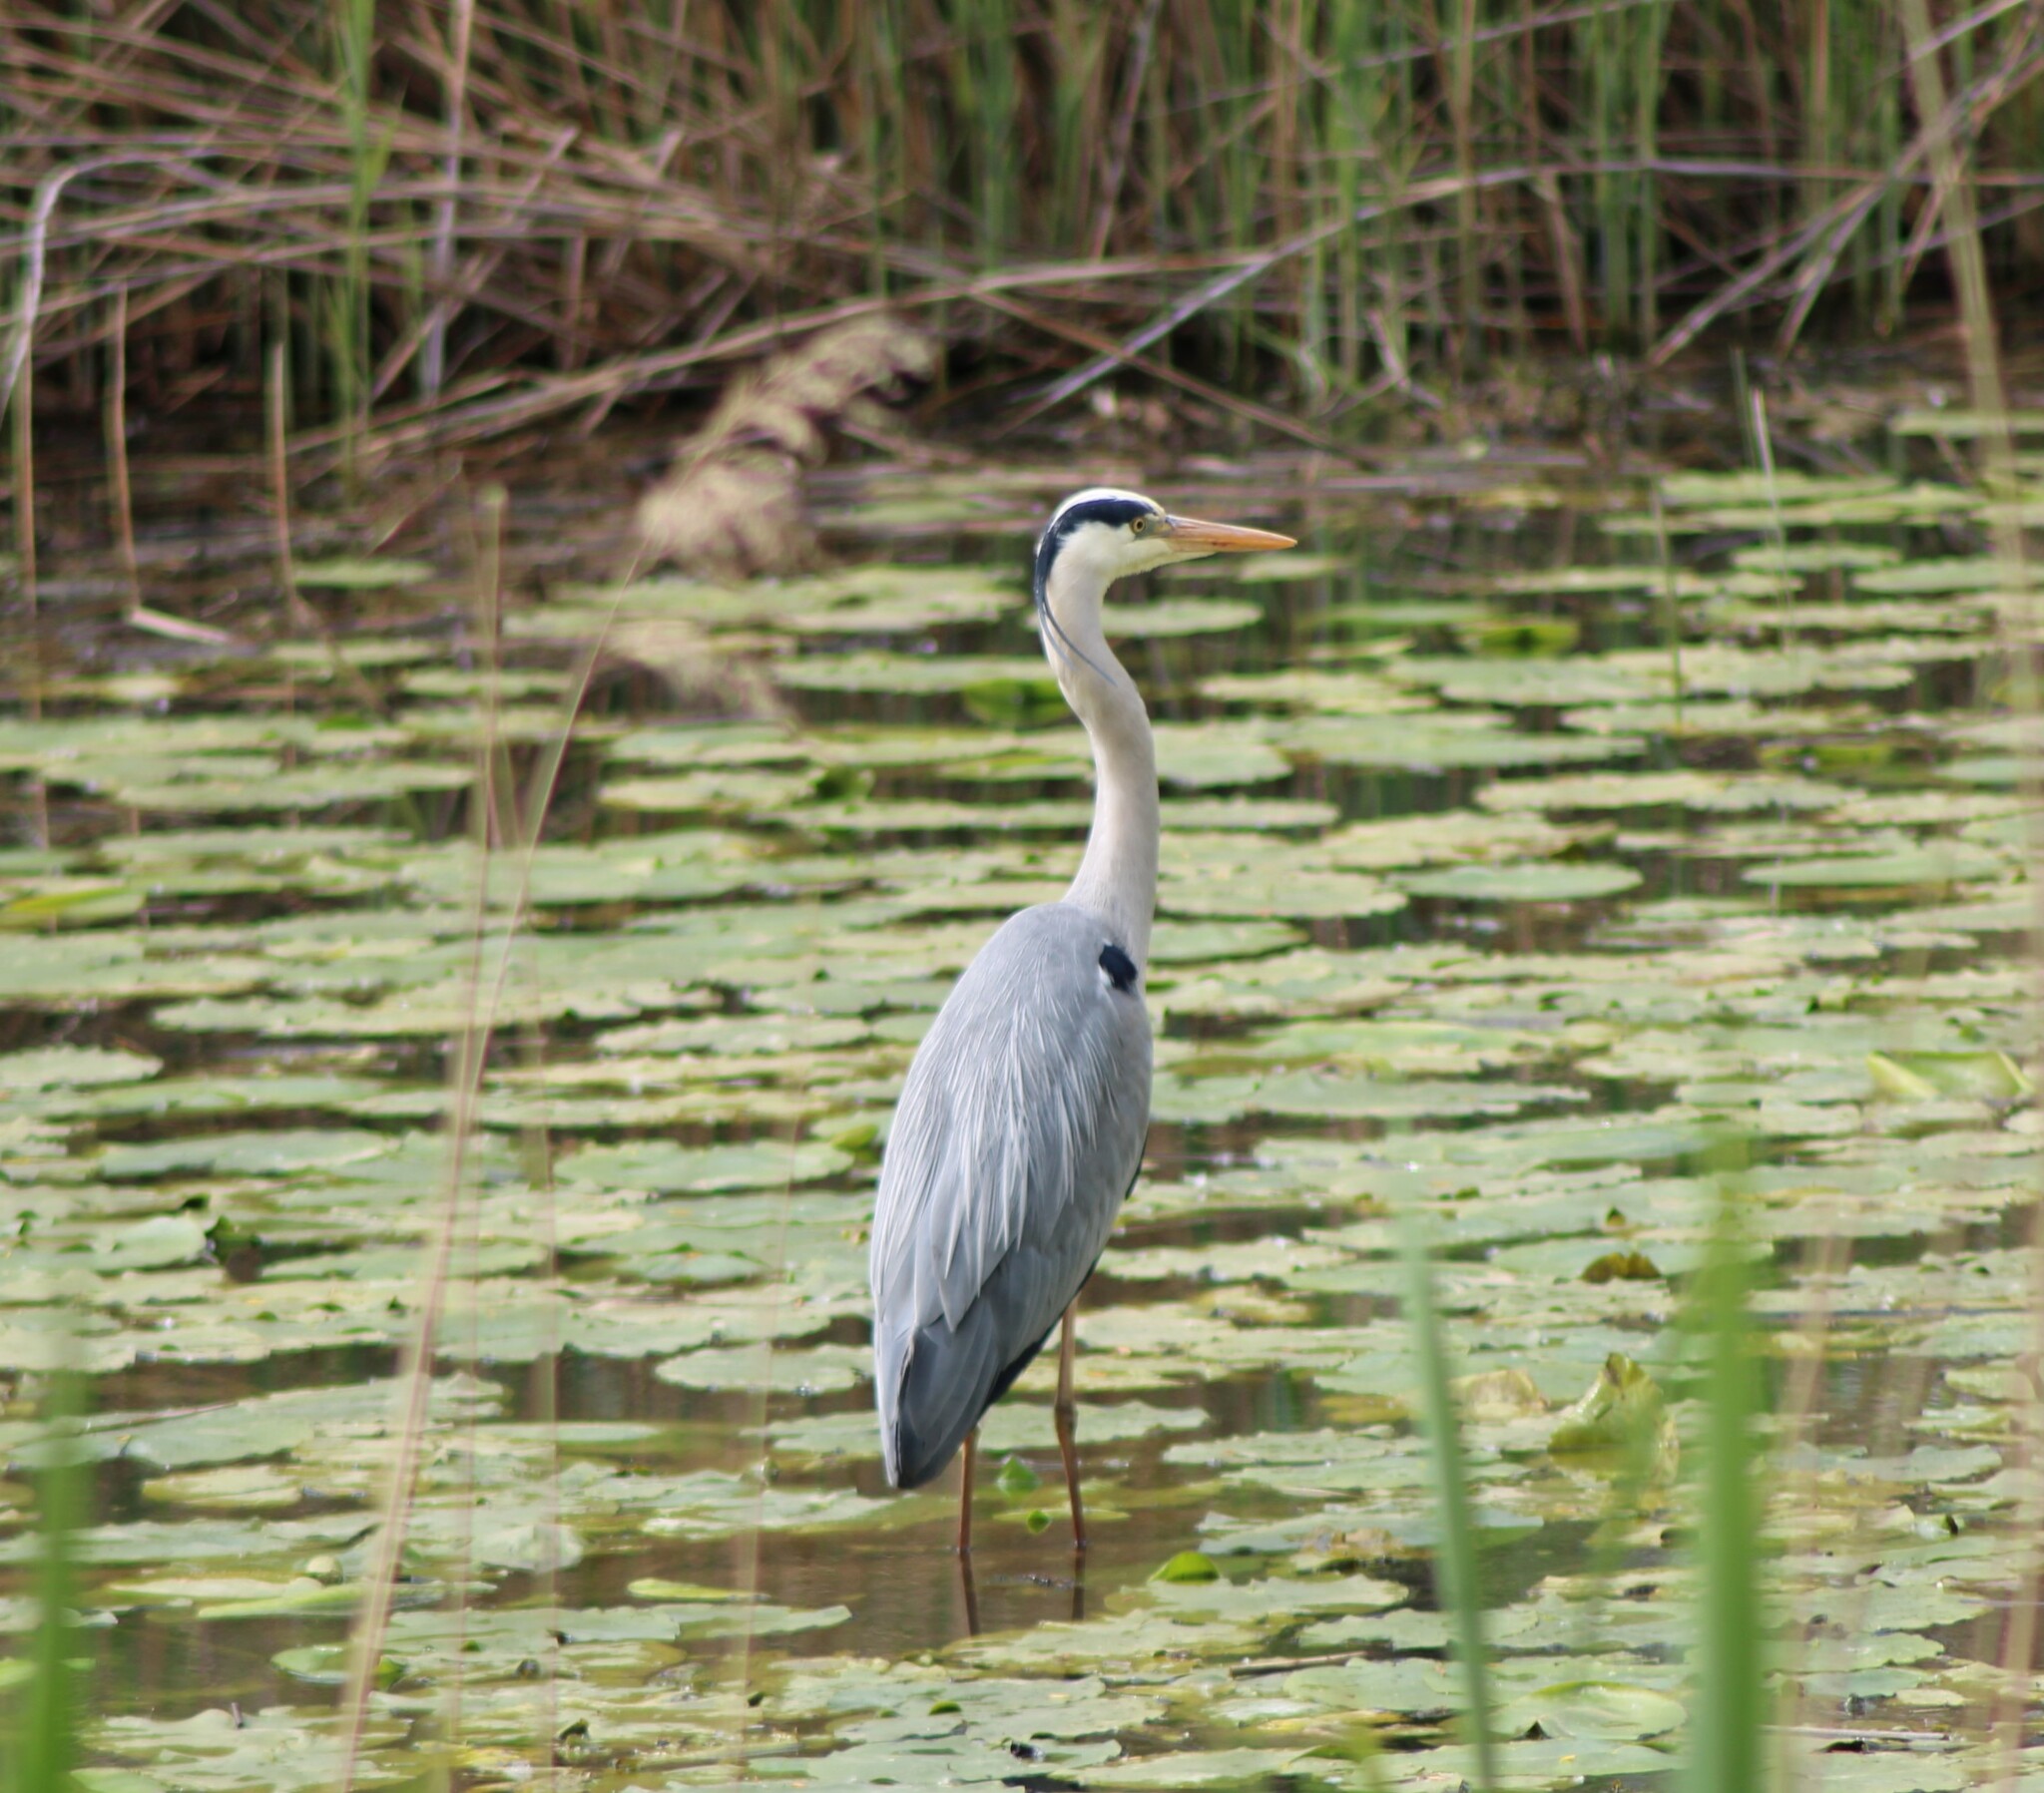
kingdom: Animalia
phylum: Chordata
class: Aves
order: Pelecaniformes
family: Ardeidae
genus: Ardea
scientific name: Ardea cinerea
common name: Grey heron
